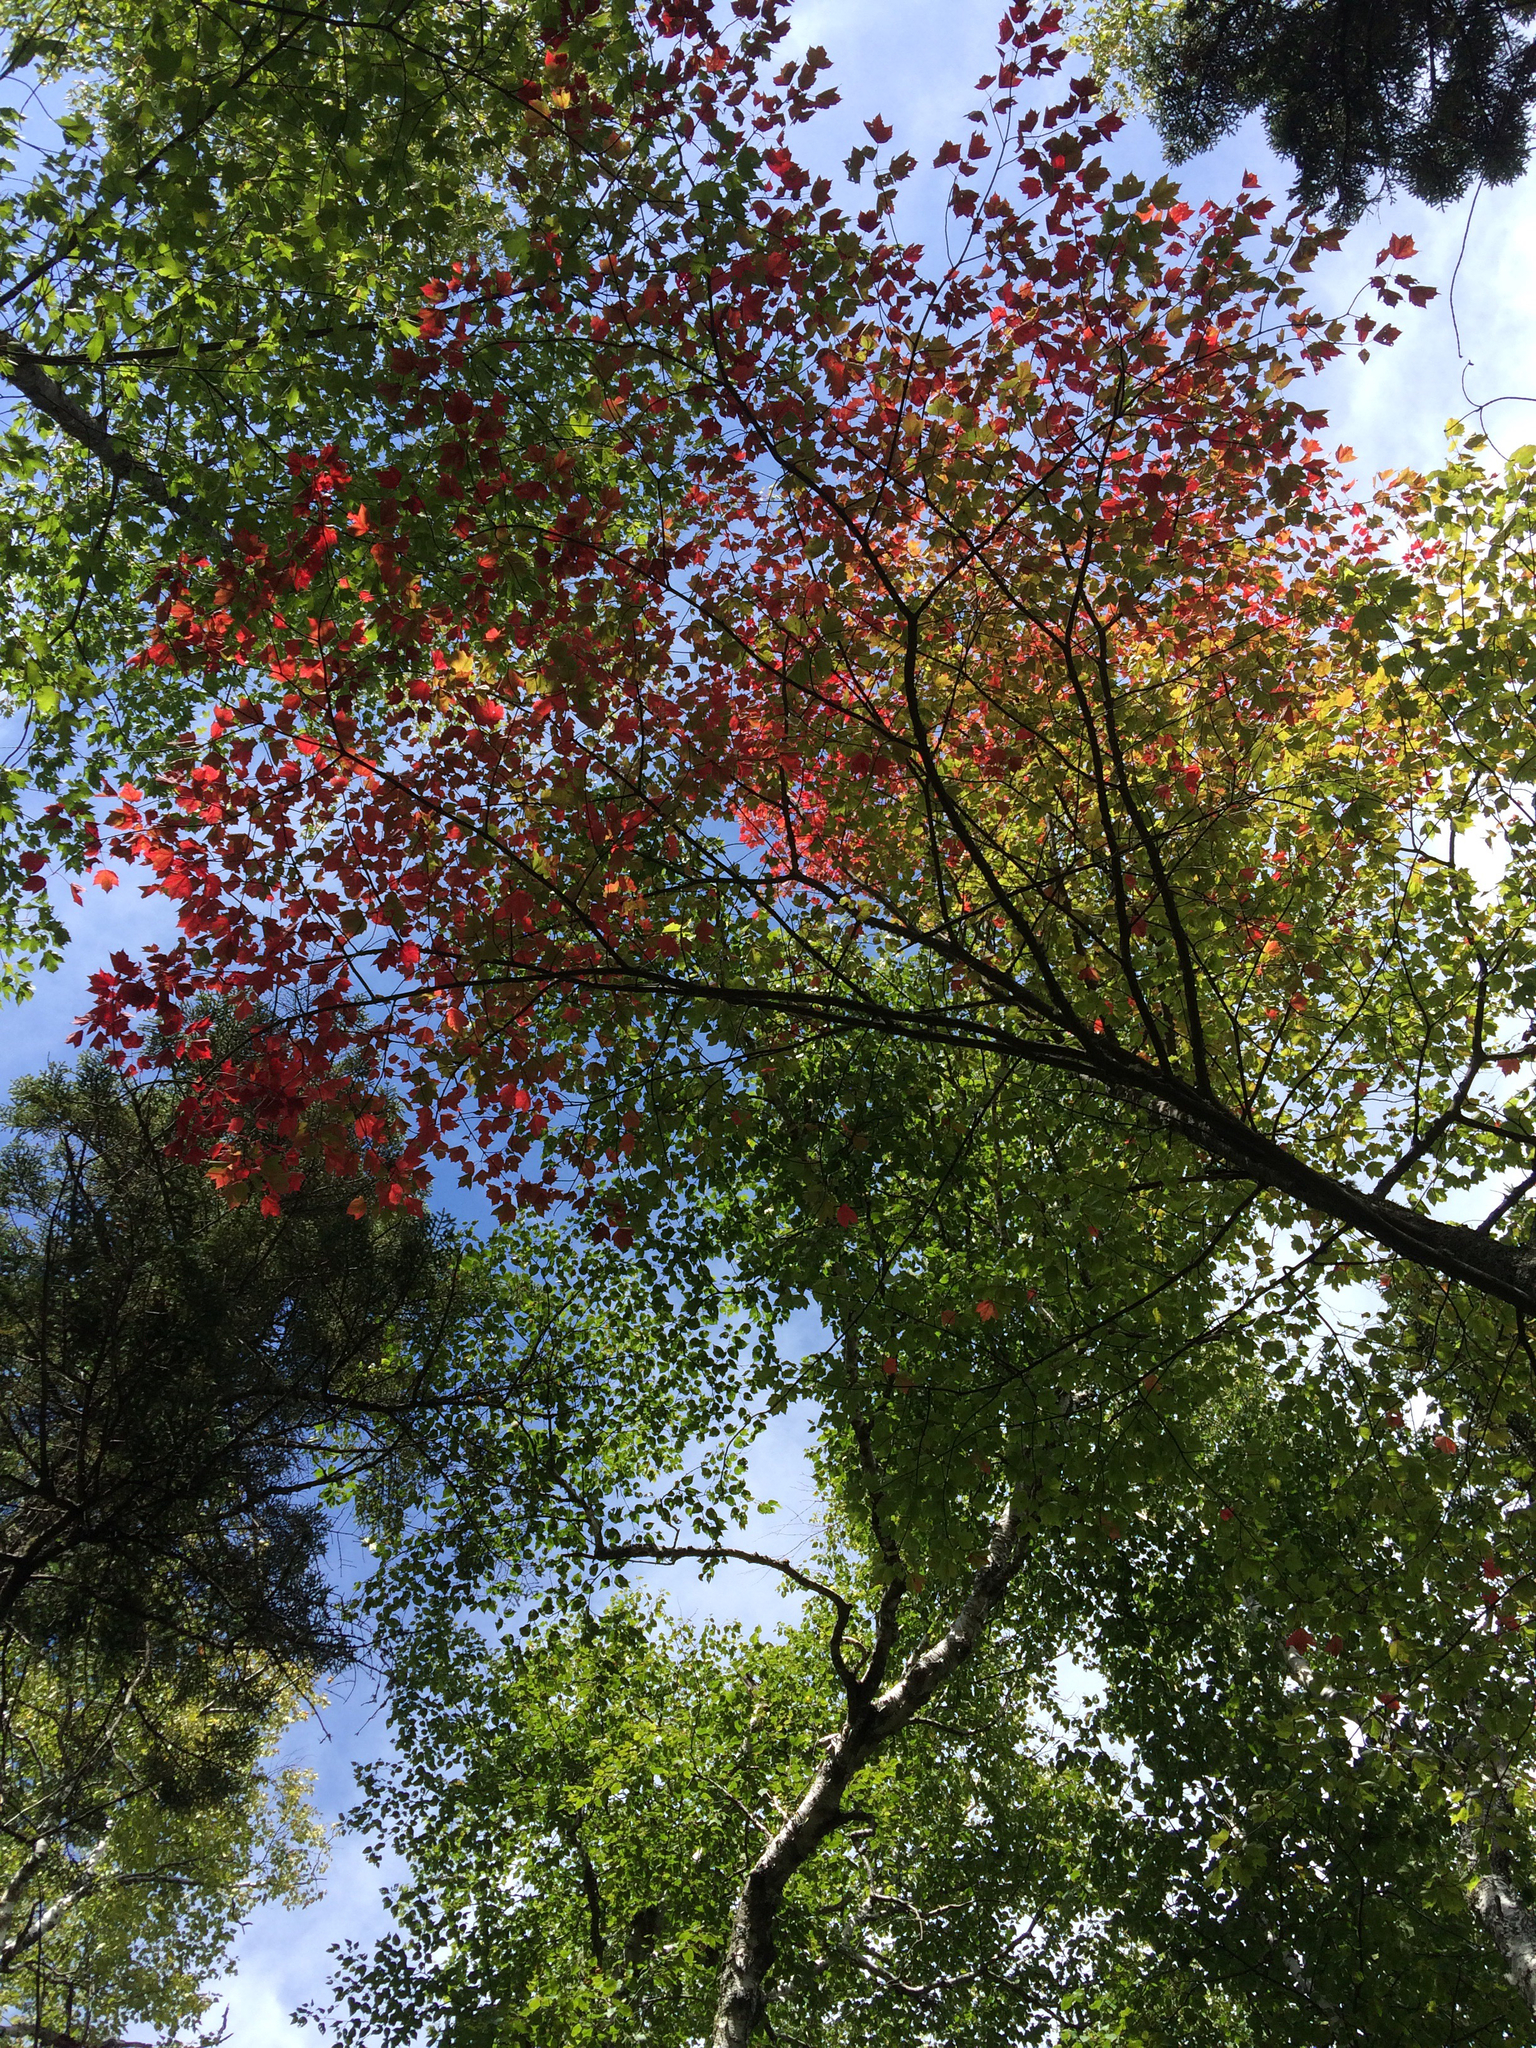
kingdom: Plantae
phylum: Tracheophyta
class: Magnoliopsida
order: Sapindales
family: Sapindaceae
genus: Acer
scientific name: Acer rubrum
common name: Red maple
